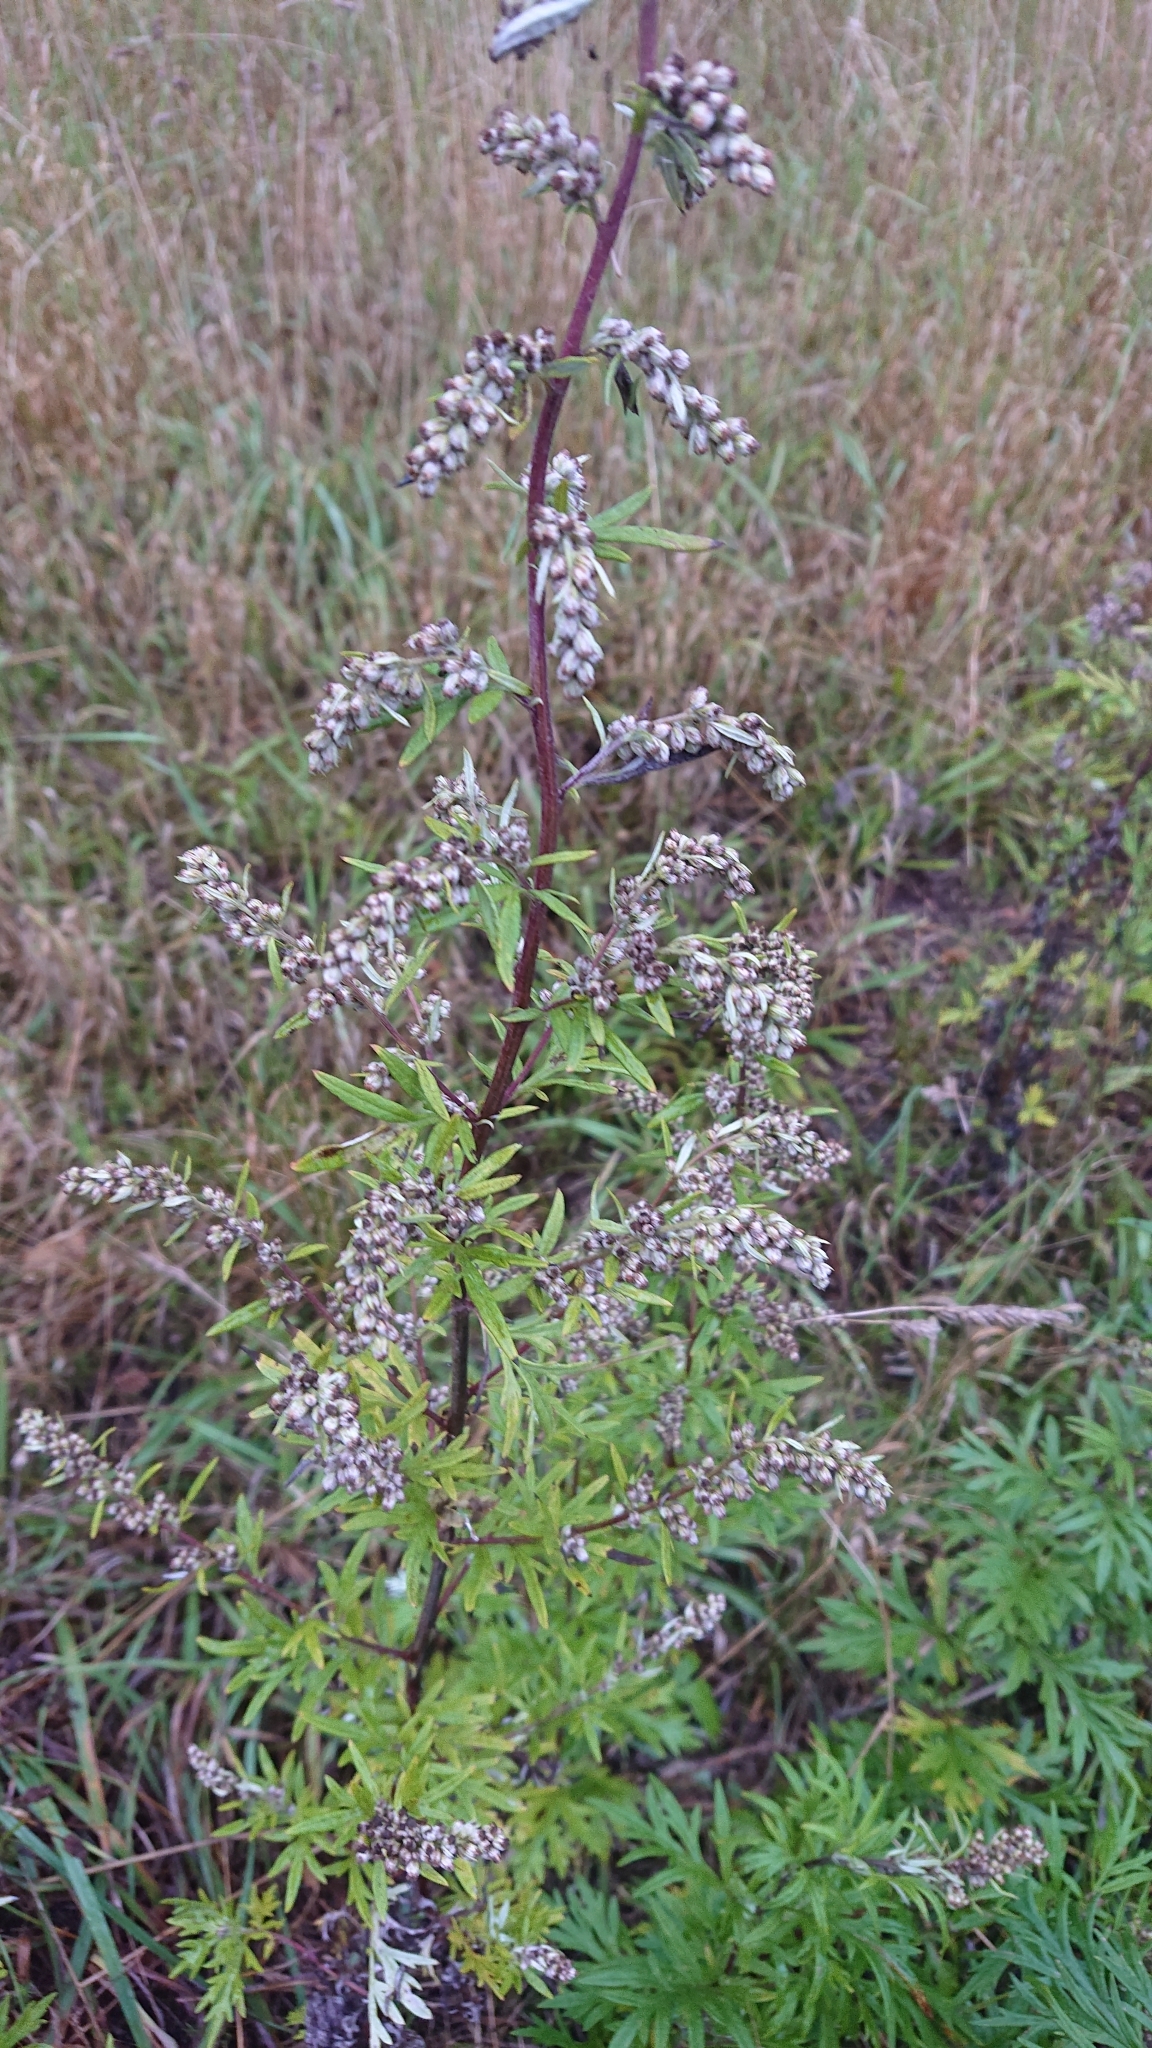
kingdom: Plantae
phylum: Tracheophyta
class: Magnoliopsida
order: Asterales
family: Asteraceae
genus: Artemisia
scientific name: Artemisia vulgaris
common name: Mugwort
